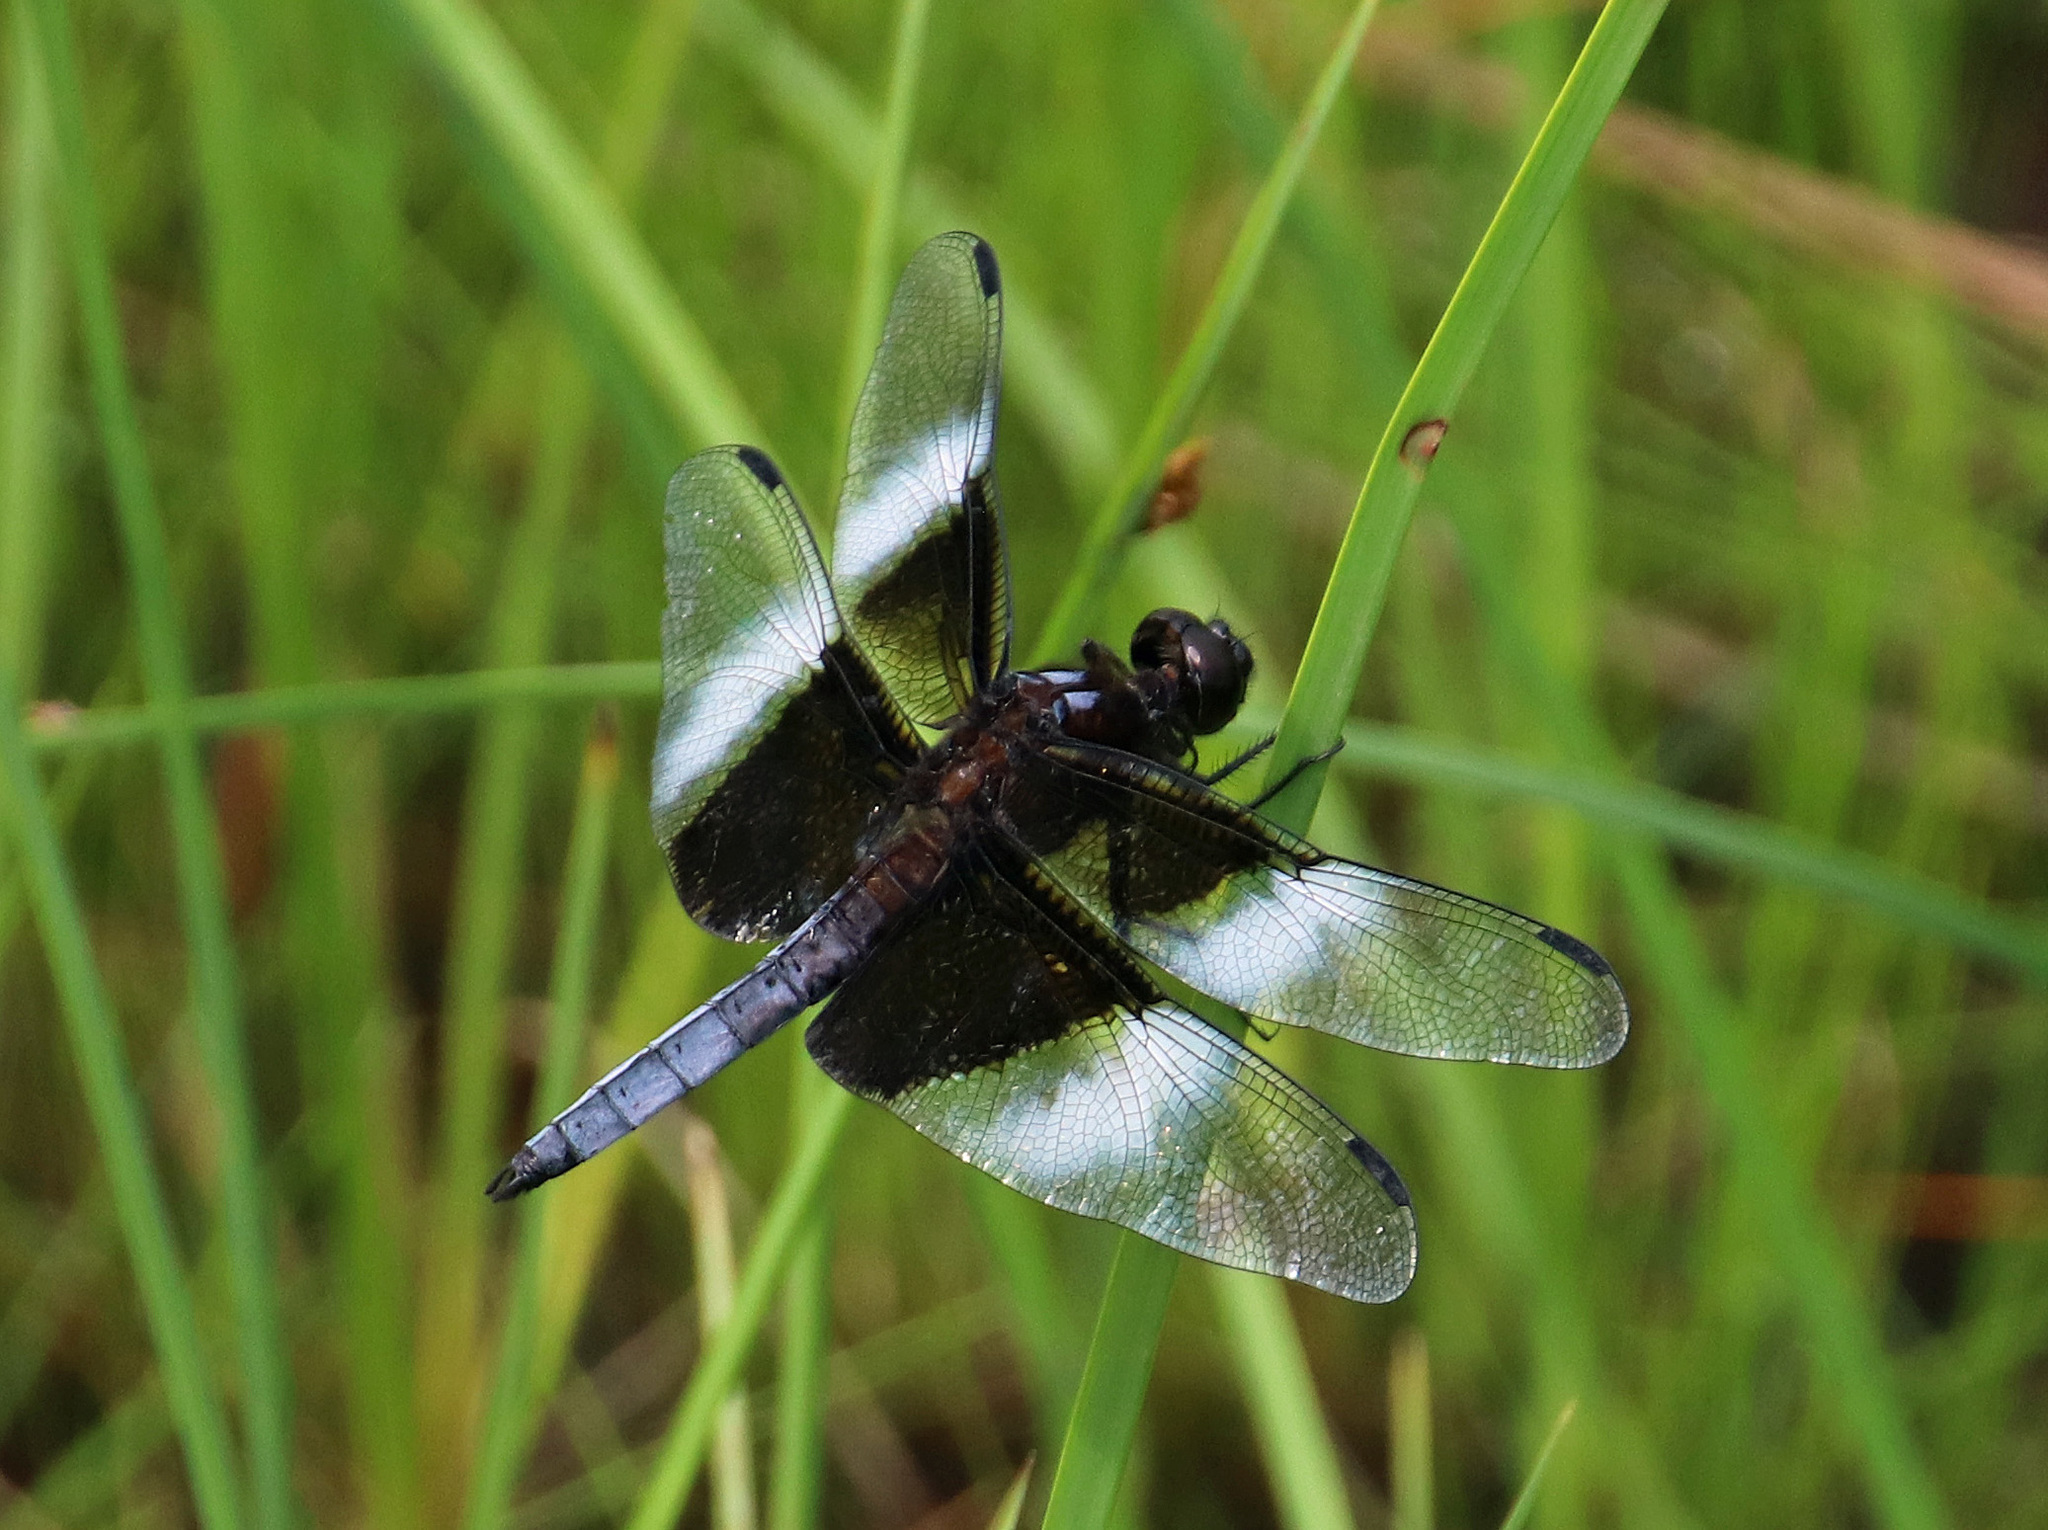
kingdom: Animalia
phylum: Arthropoda
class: Insecta
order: Odonata
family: Libellulidae
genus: Libellula
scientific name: Libellula luctuosa
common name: Widow skimmer
